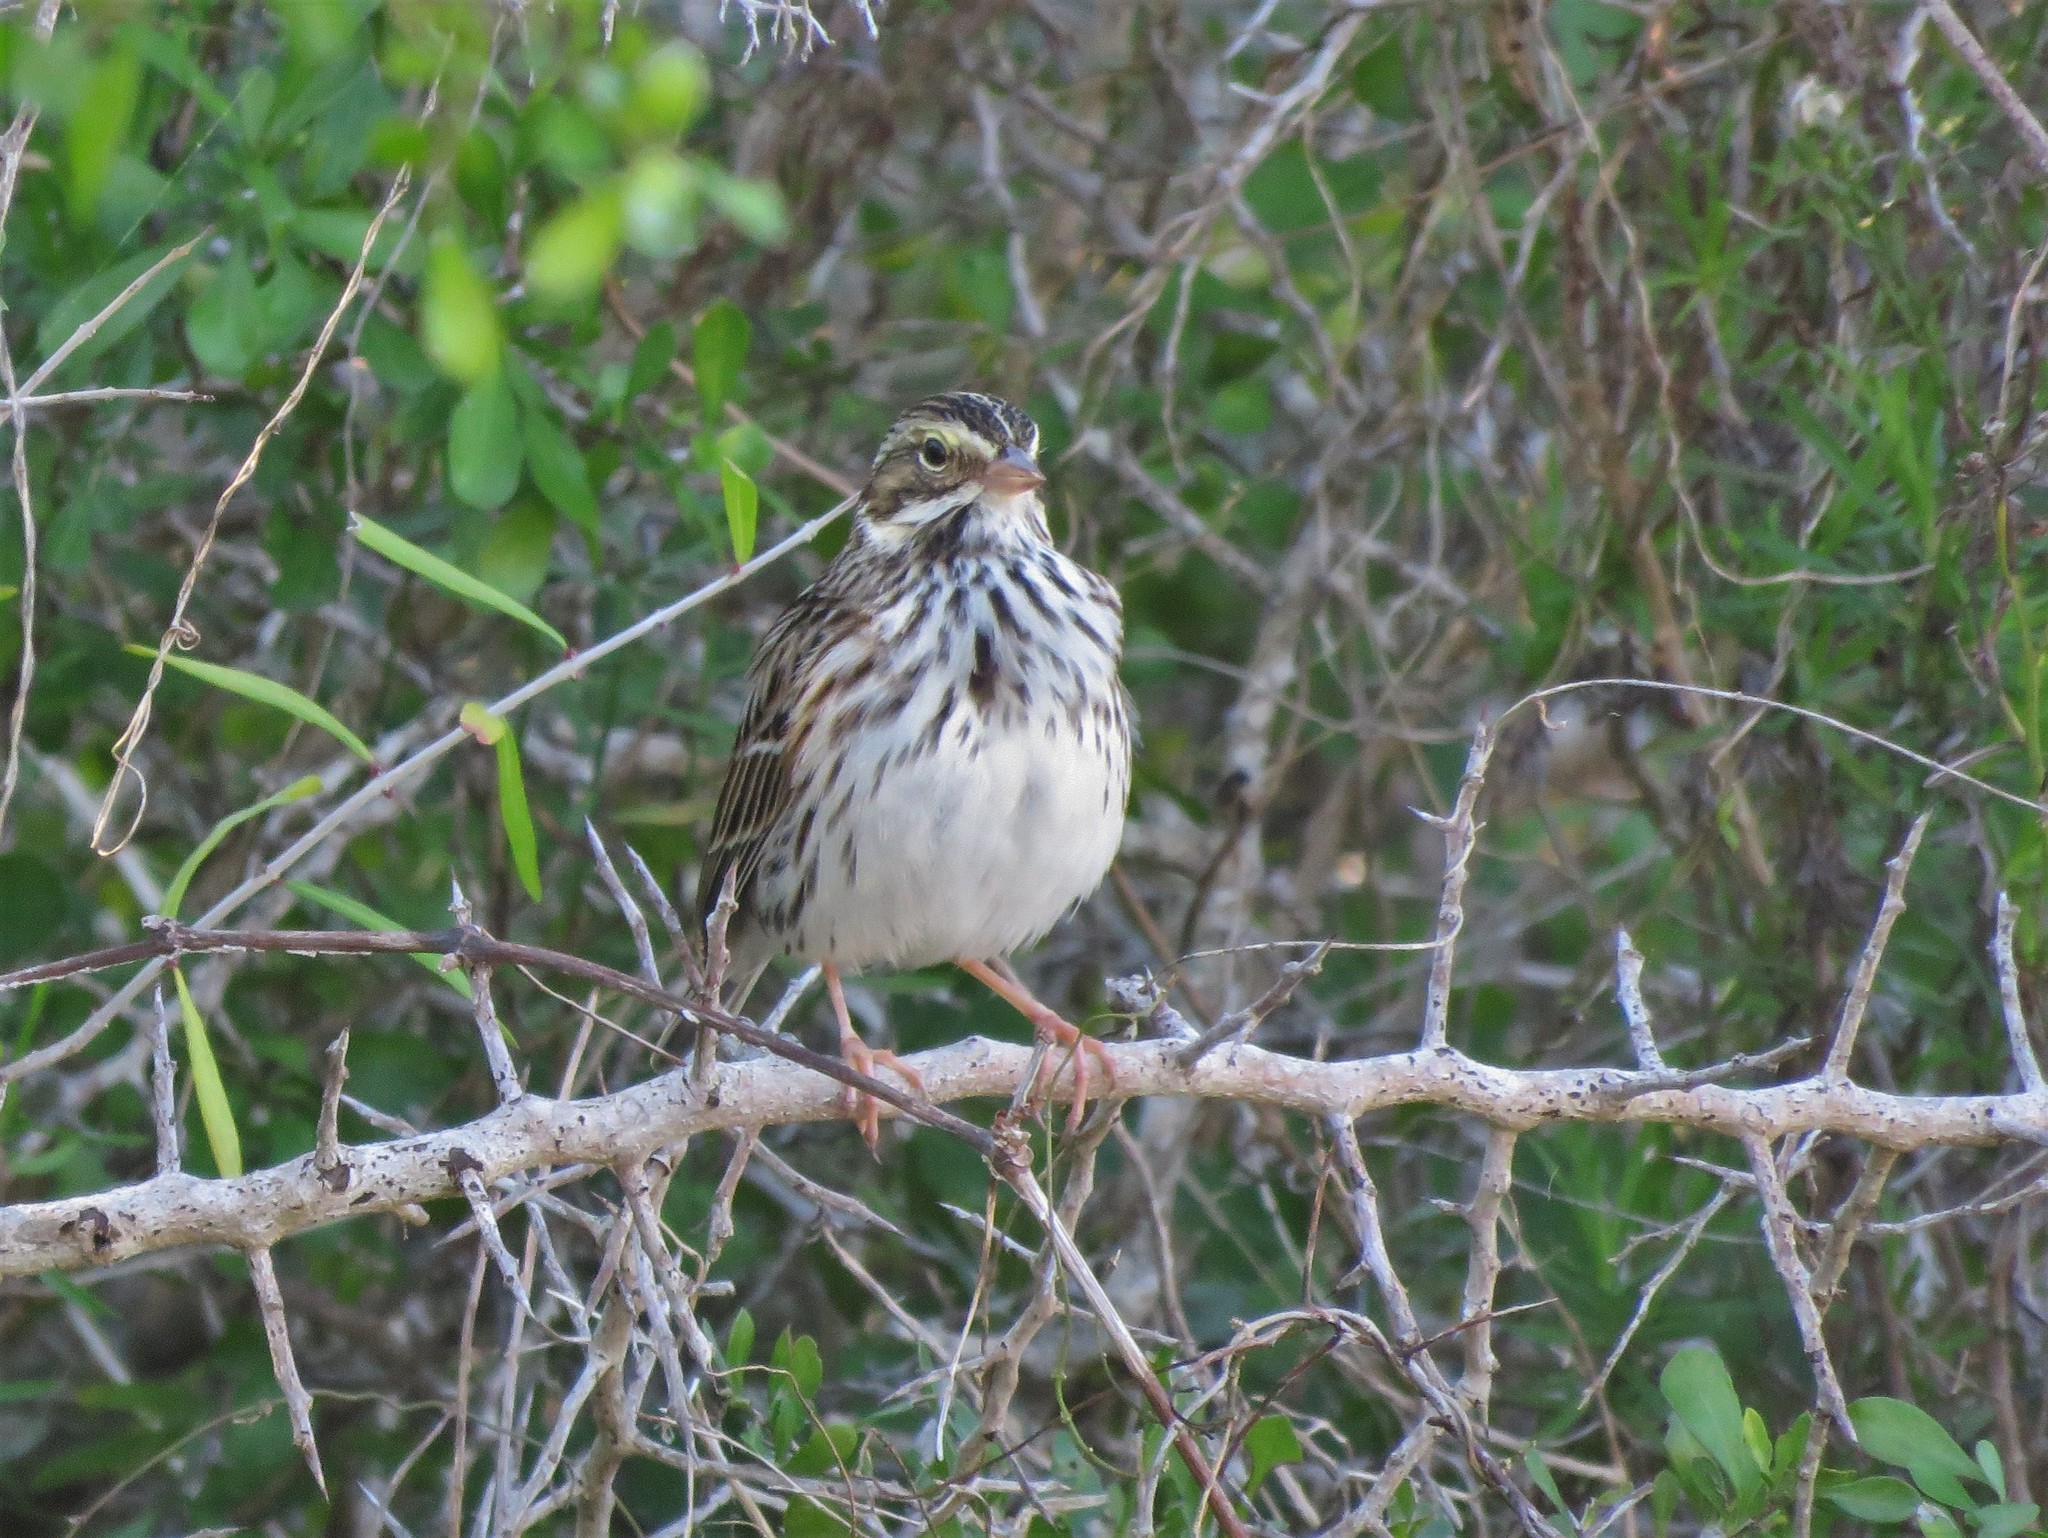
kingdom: Animalia
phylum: Chordata
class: Aves
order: Passeriformes
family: Passerellidae
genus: Passerculus
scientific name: Passerculus sandwichensis
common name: Savannah sparrow
